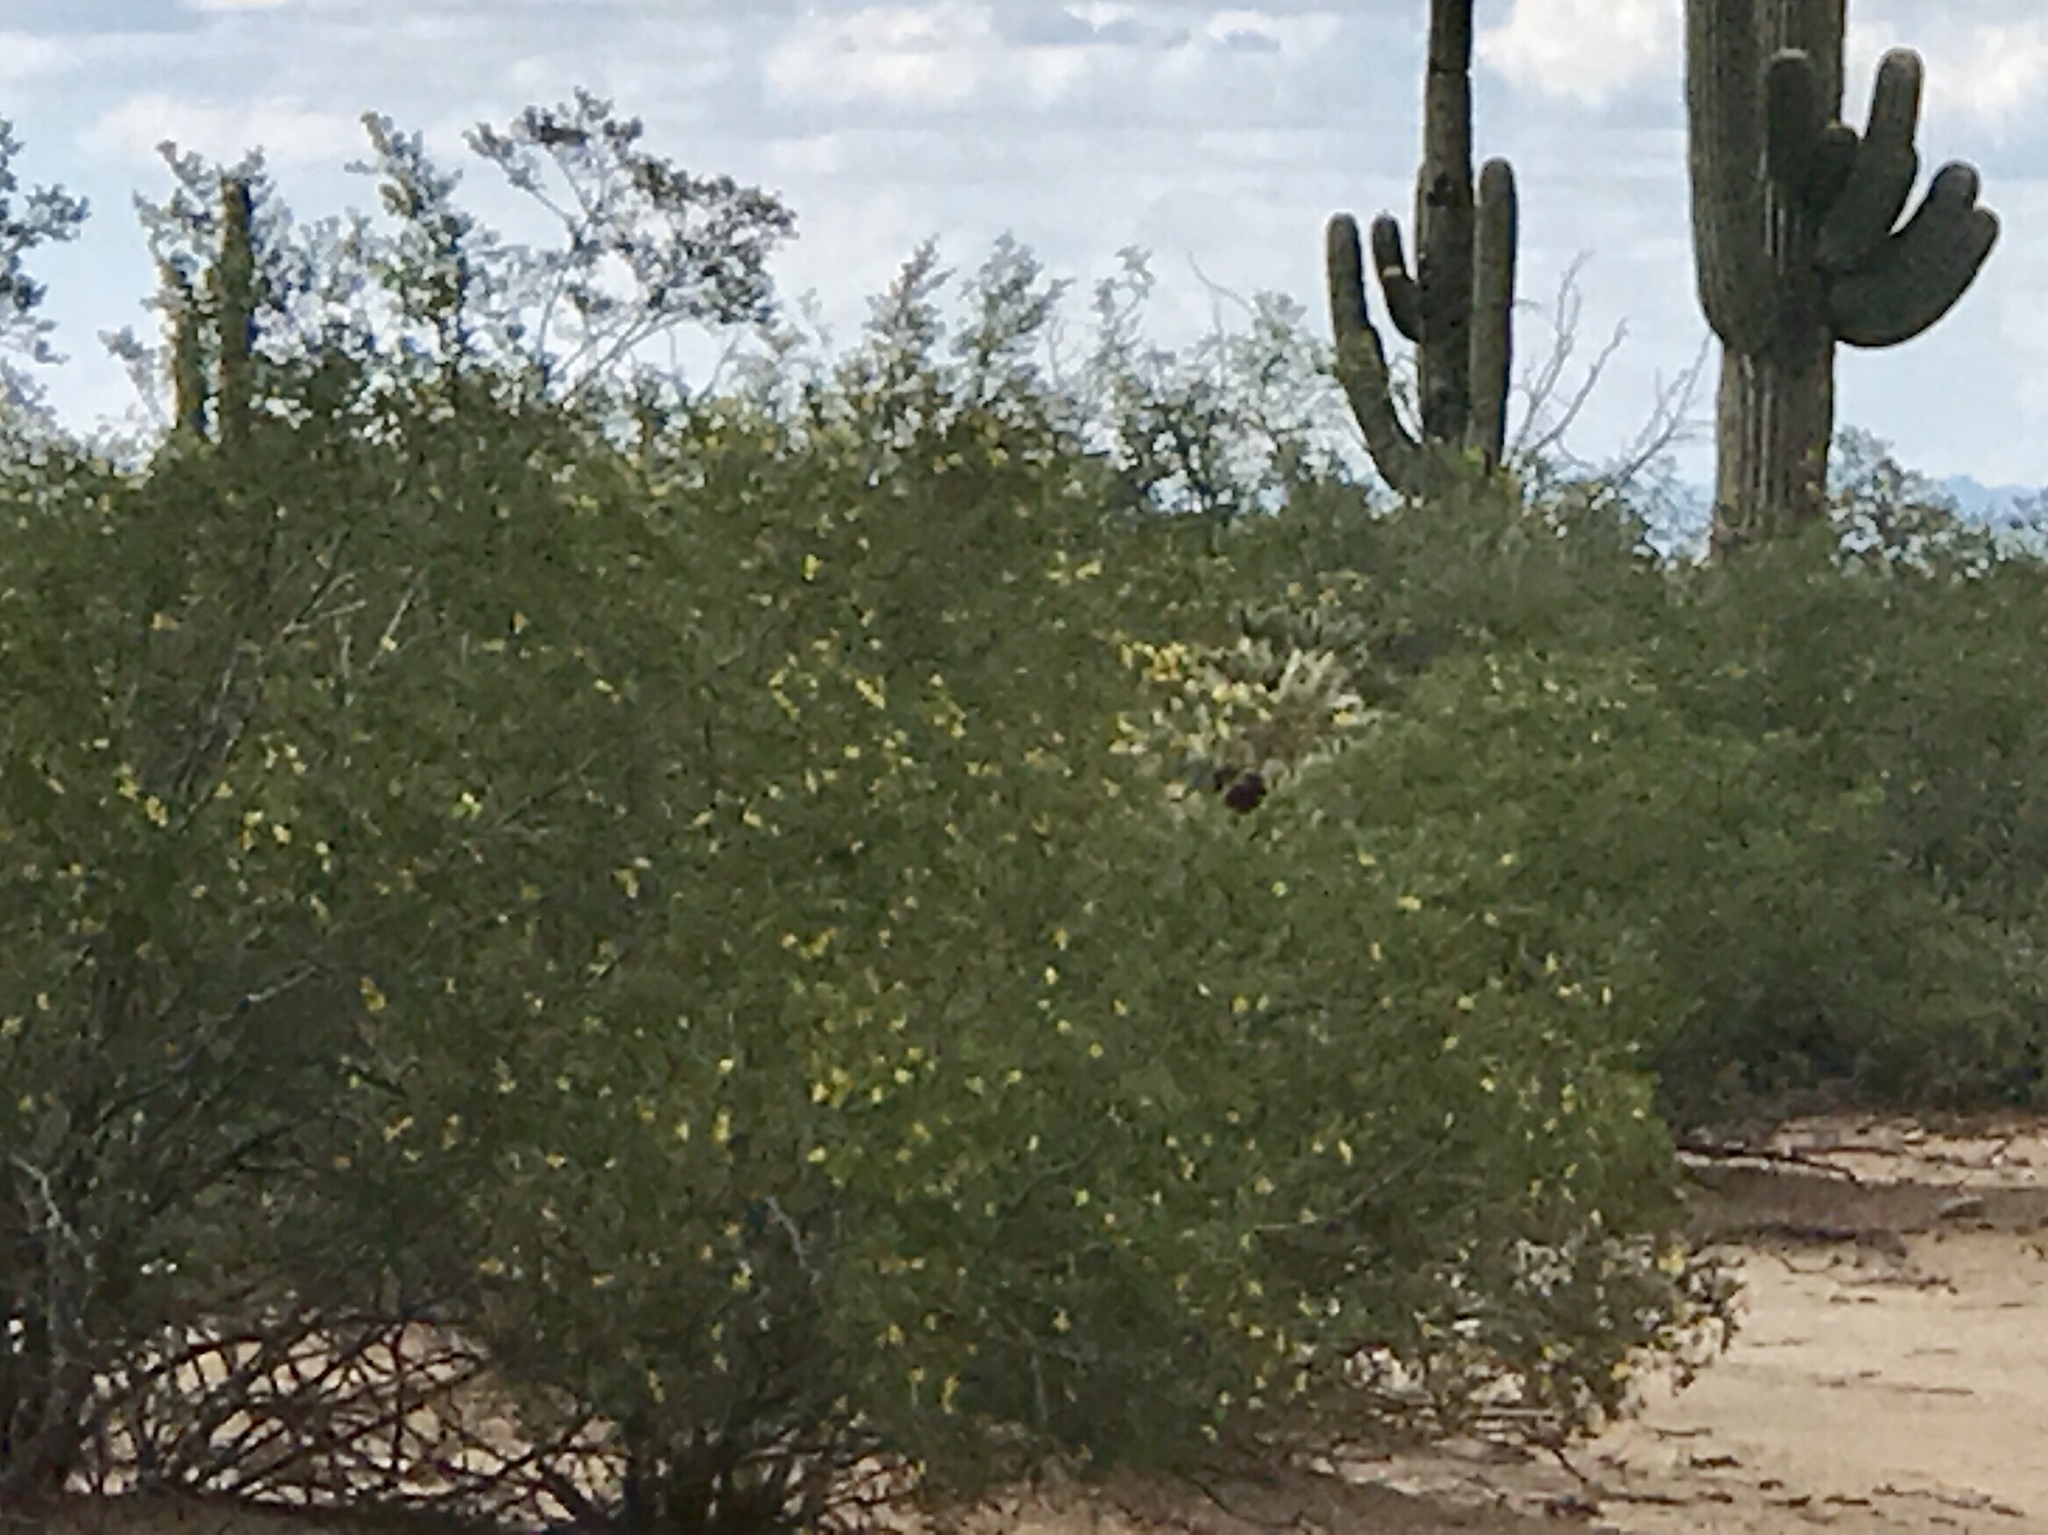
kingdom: Plantae
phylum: Tracheophyta
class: Magnoliopsida
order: Zygophyllales
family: Zygophyllaceae
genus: Larrea
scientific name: Larrea tridentata
